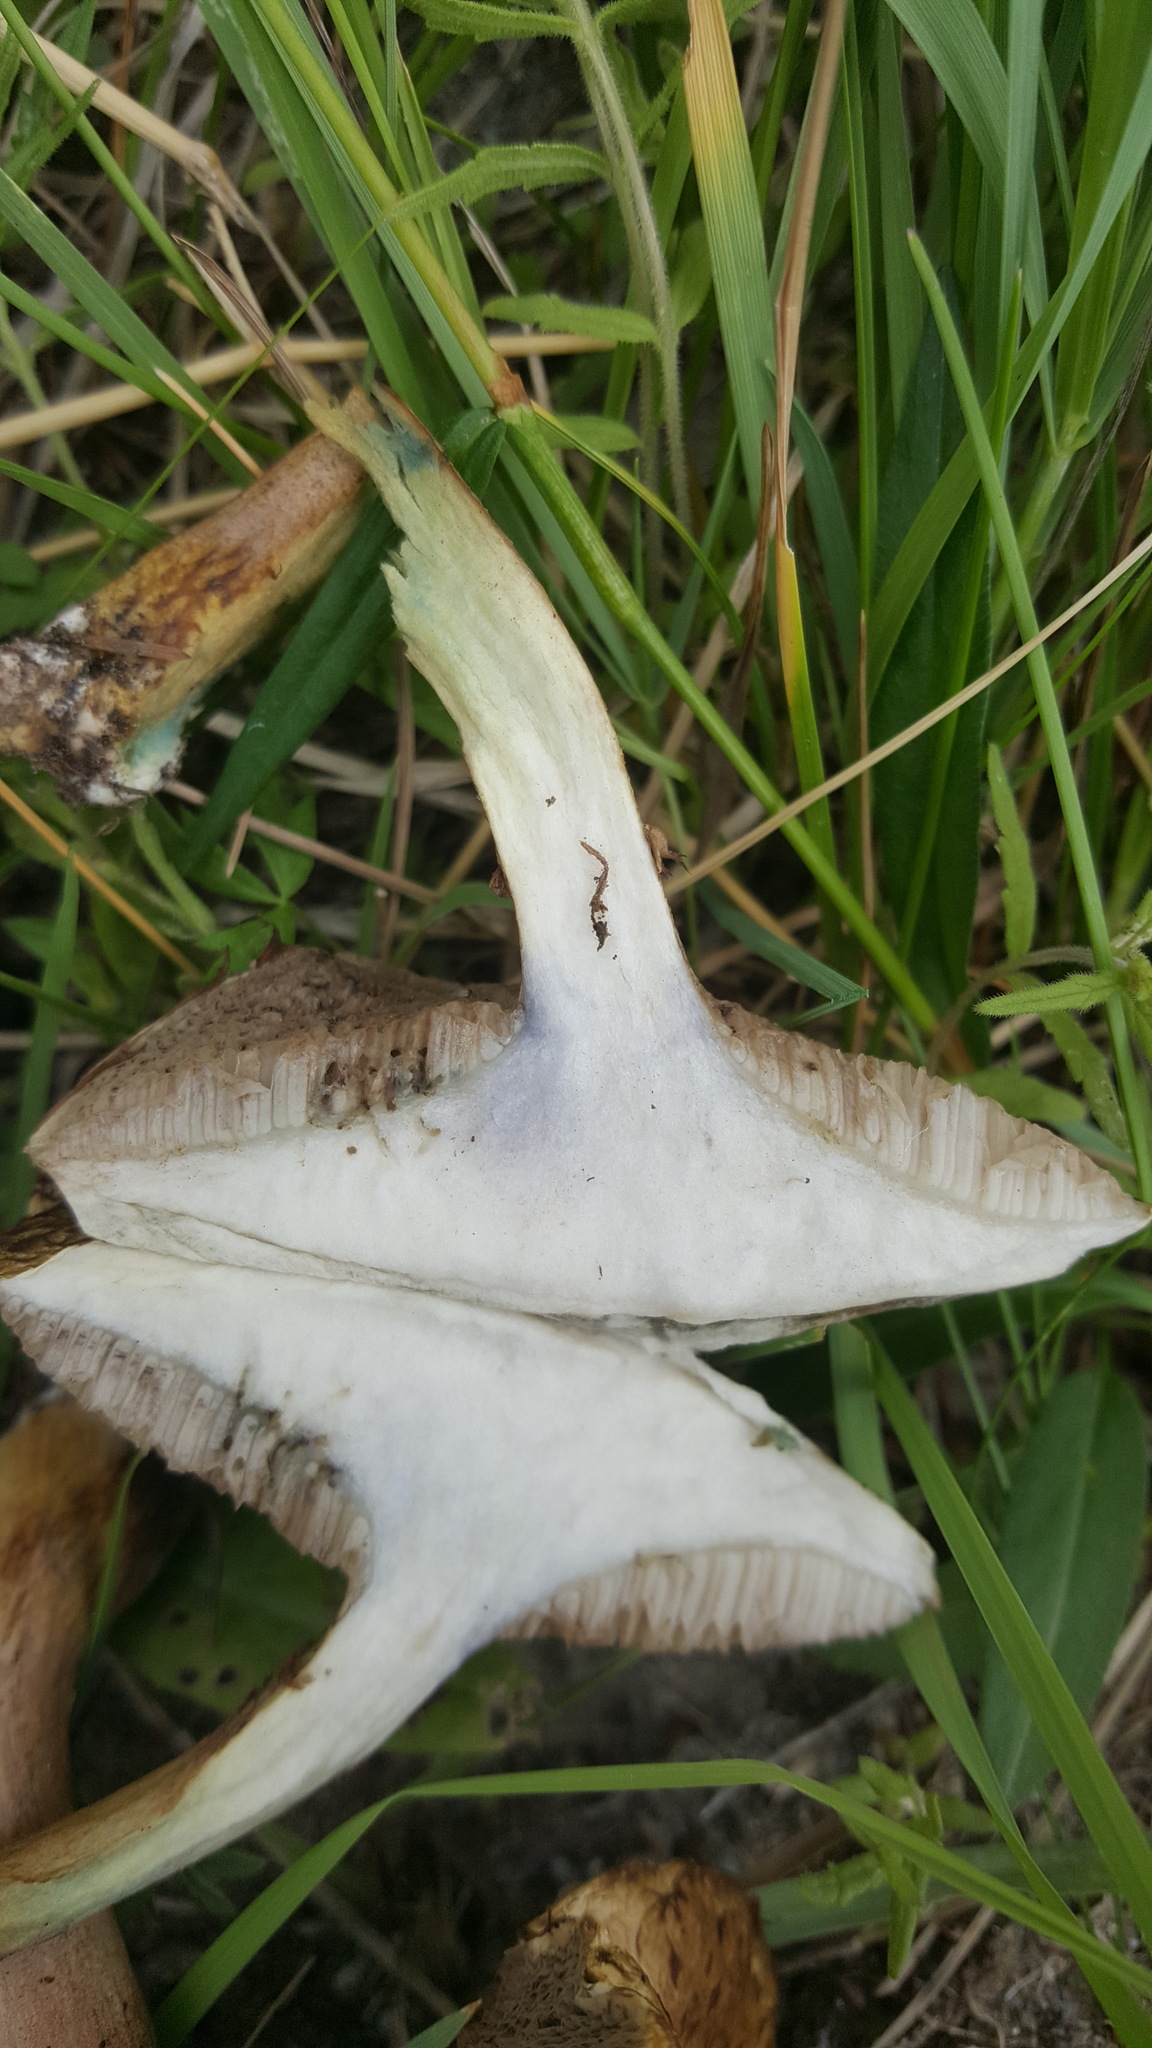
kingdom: Fungi
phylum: Basidiomycota
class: Agaricomycetes
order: Boletales
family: Suillaceae
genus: Suillus
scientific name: Suillus viscidus
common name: Sticky bolete
